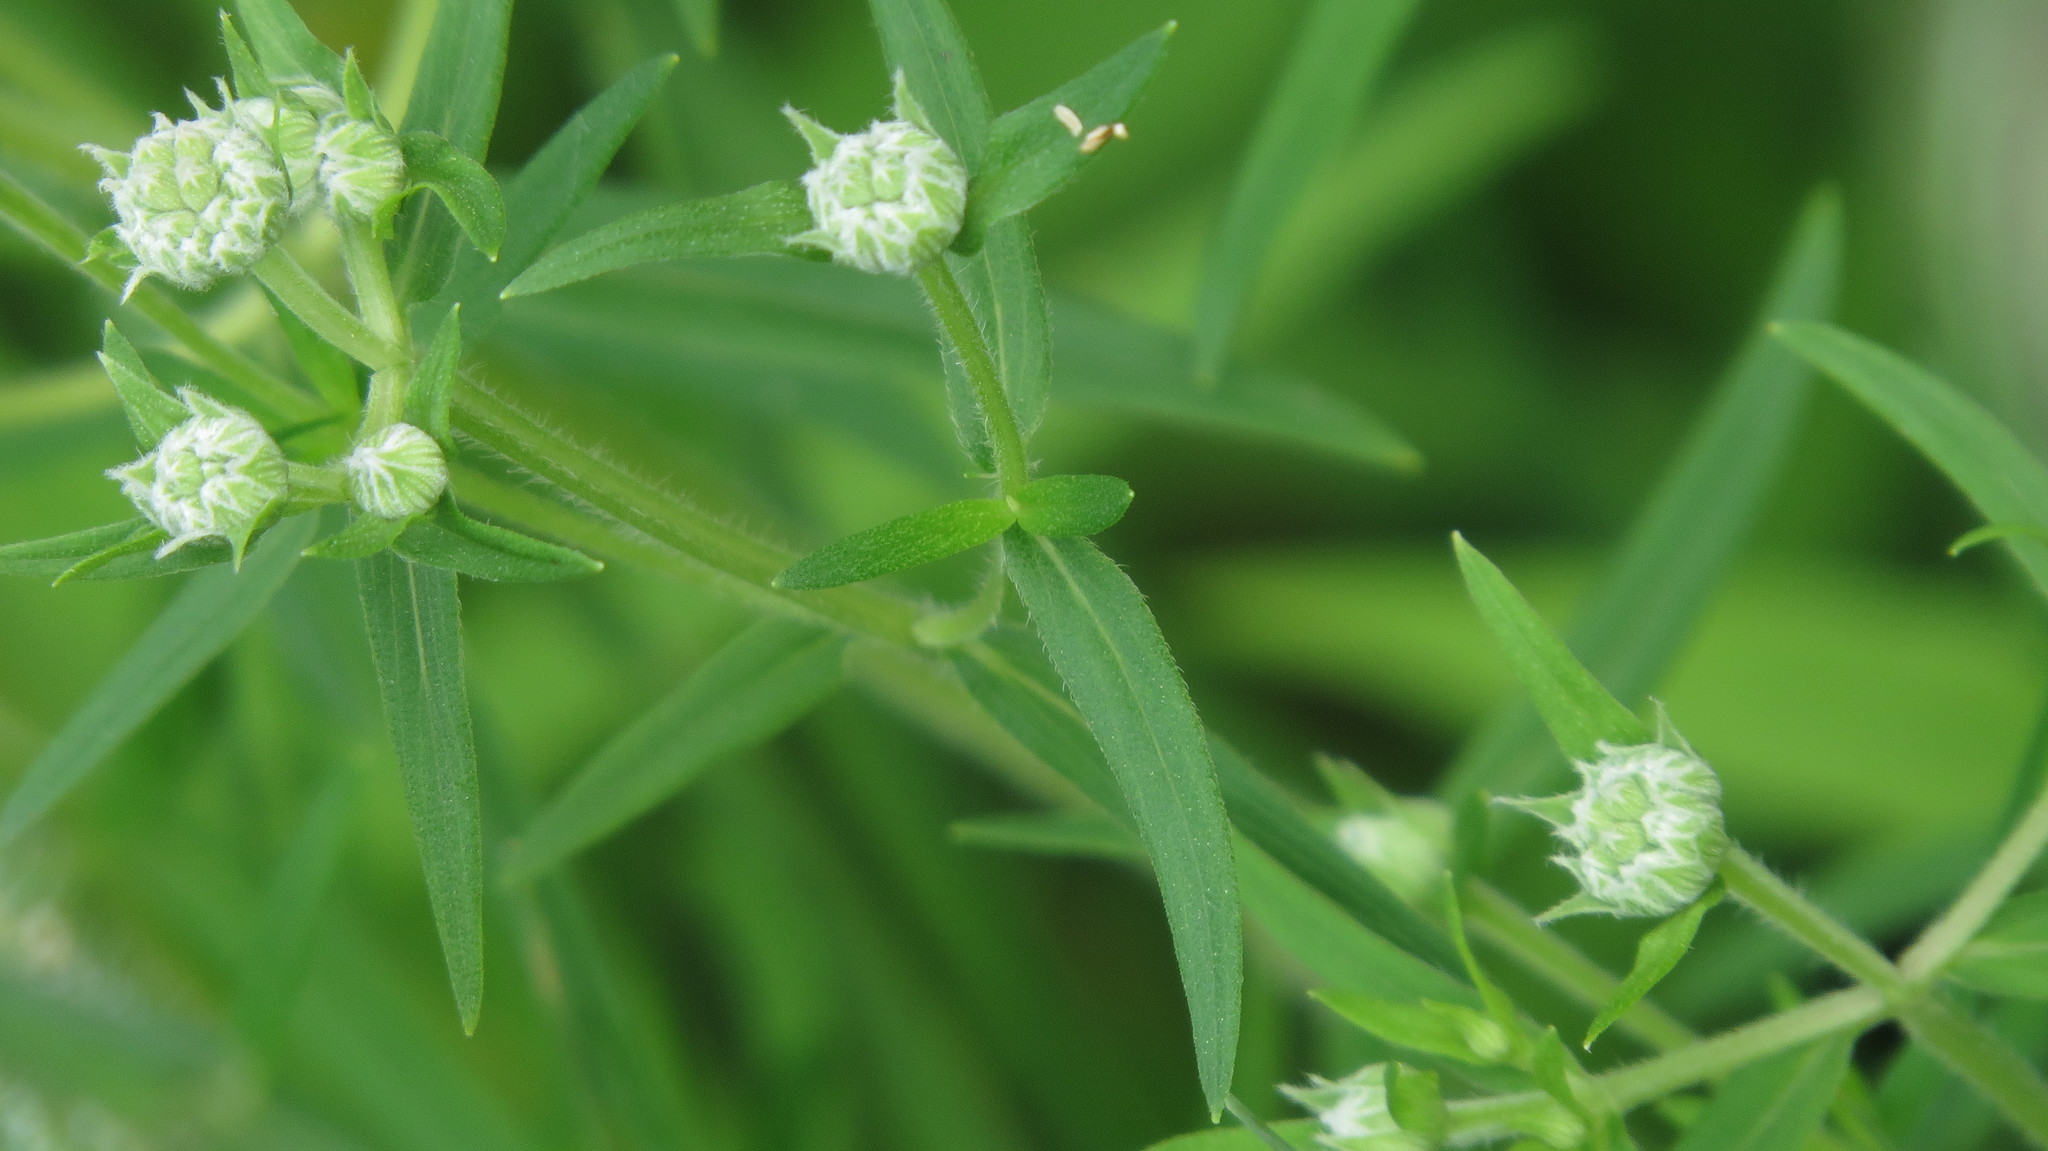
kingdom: Plantae
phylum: Tracheophyta
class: Magnoliopsida
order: Lamiales
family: Lamiaceae
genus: Pycnanthemum
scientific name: Pycnanthemum virginianum
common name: Virginia mountain-mint
